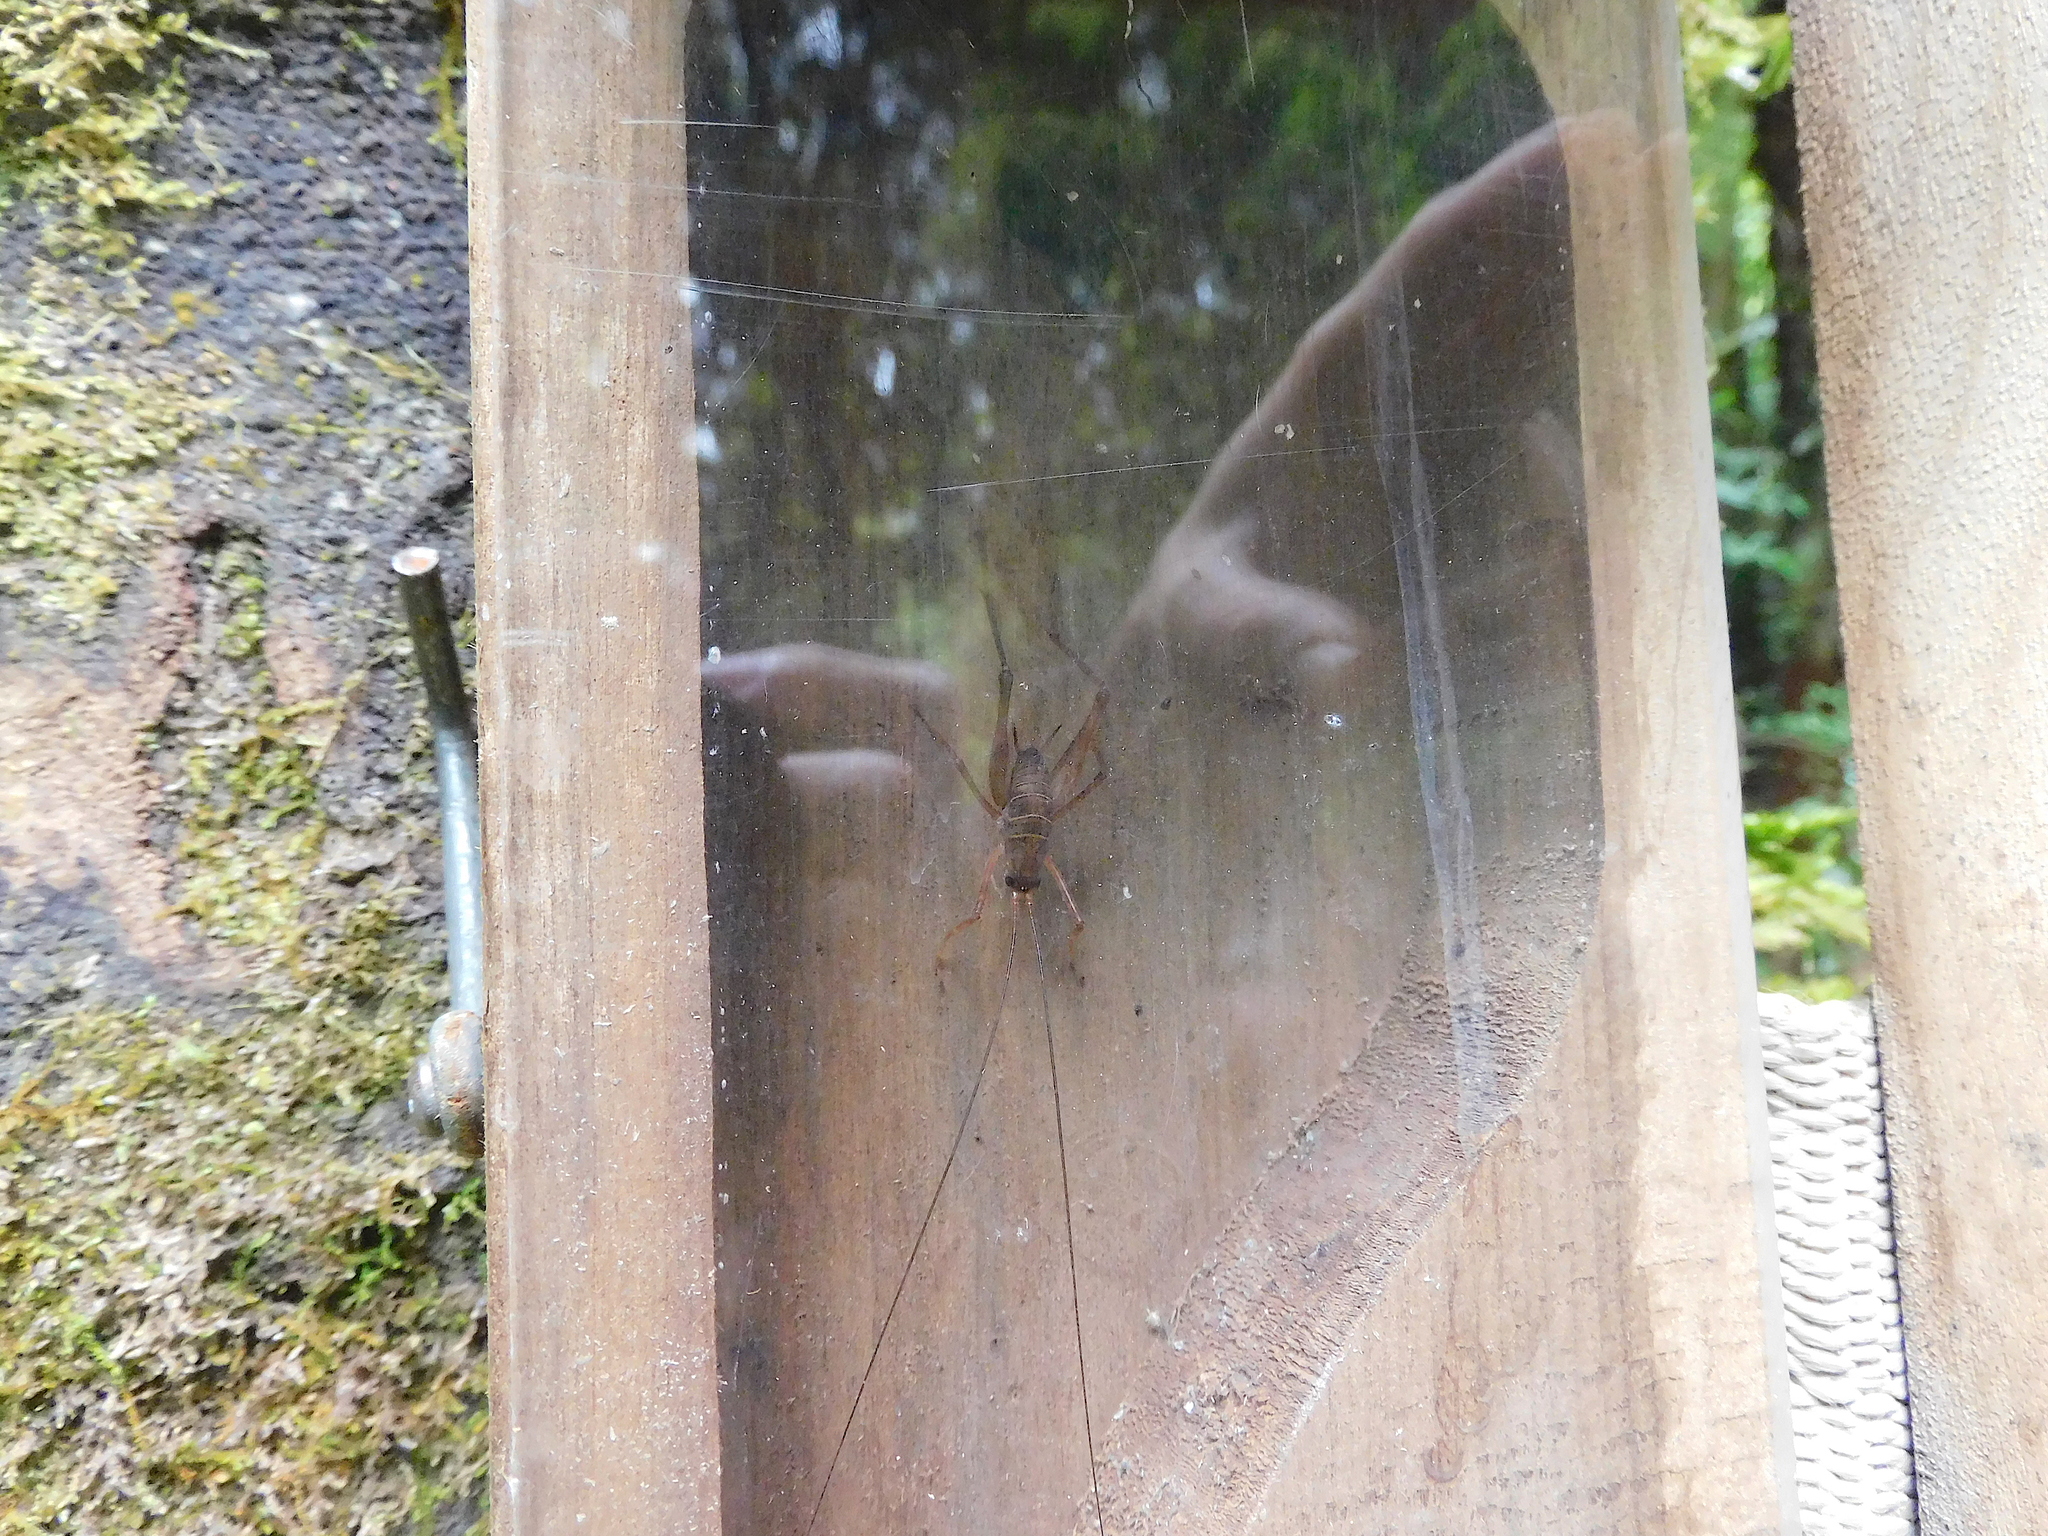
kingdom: Animalia
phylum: Arthropoda
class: Insecta
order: Orthoptera
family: Rhaphidophoridae
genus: Pachyrhamma
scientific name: Pachyrhamma longipes
